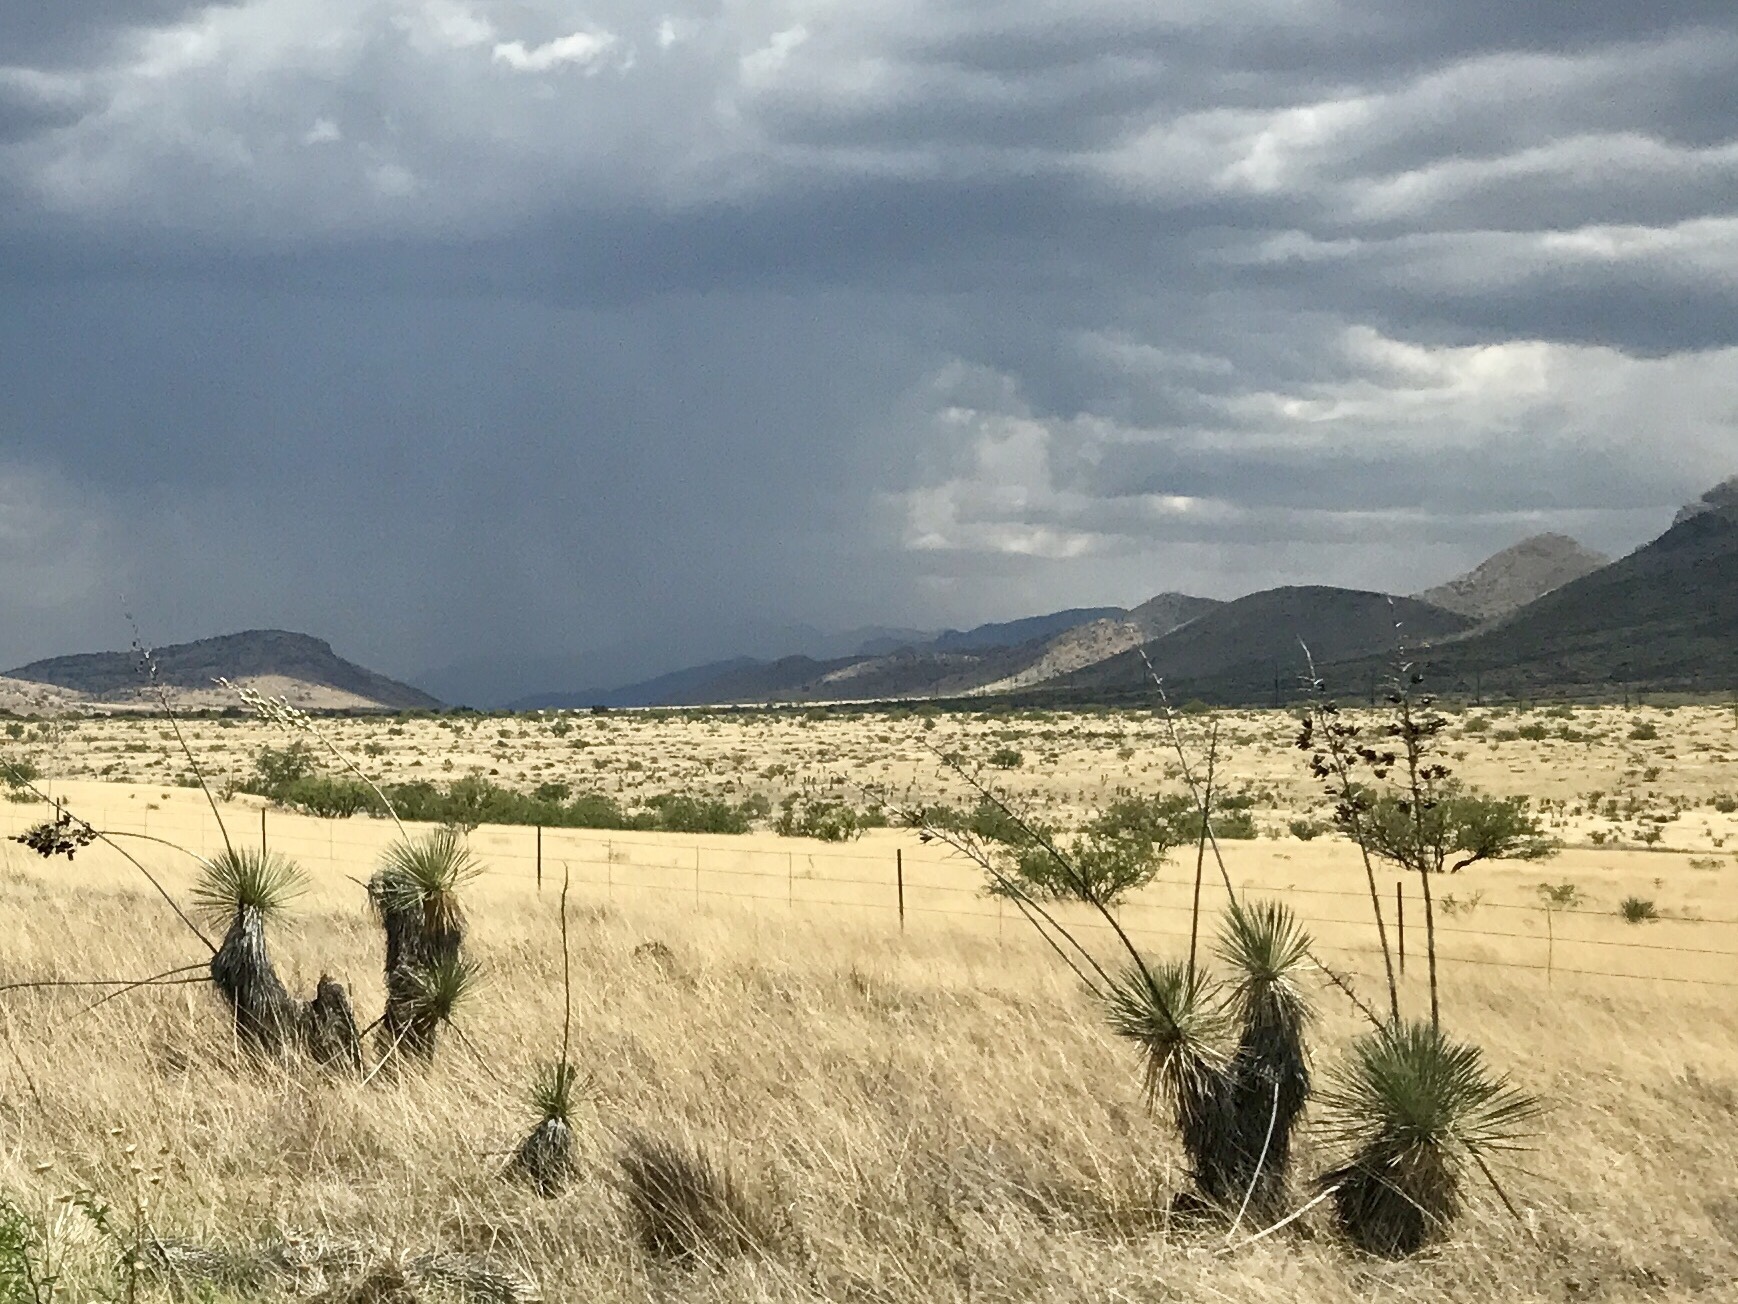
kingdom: Plantae
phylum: Tracheophyta
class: Liliopsida
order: Asparagales
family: Asparagaceae
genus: Yucca
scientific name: Yucca elata
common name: Palmella
